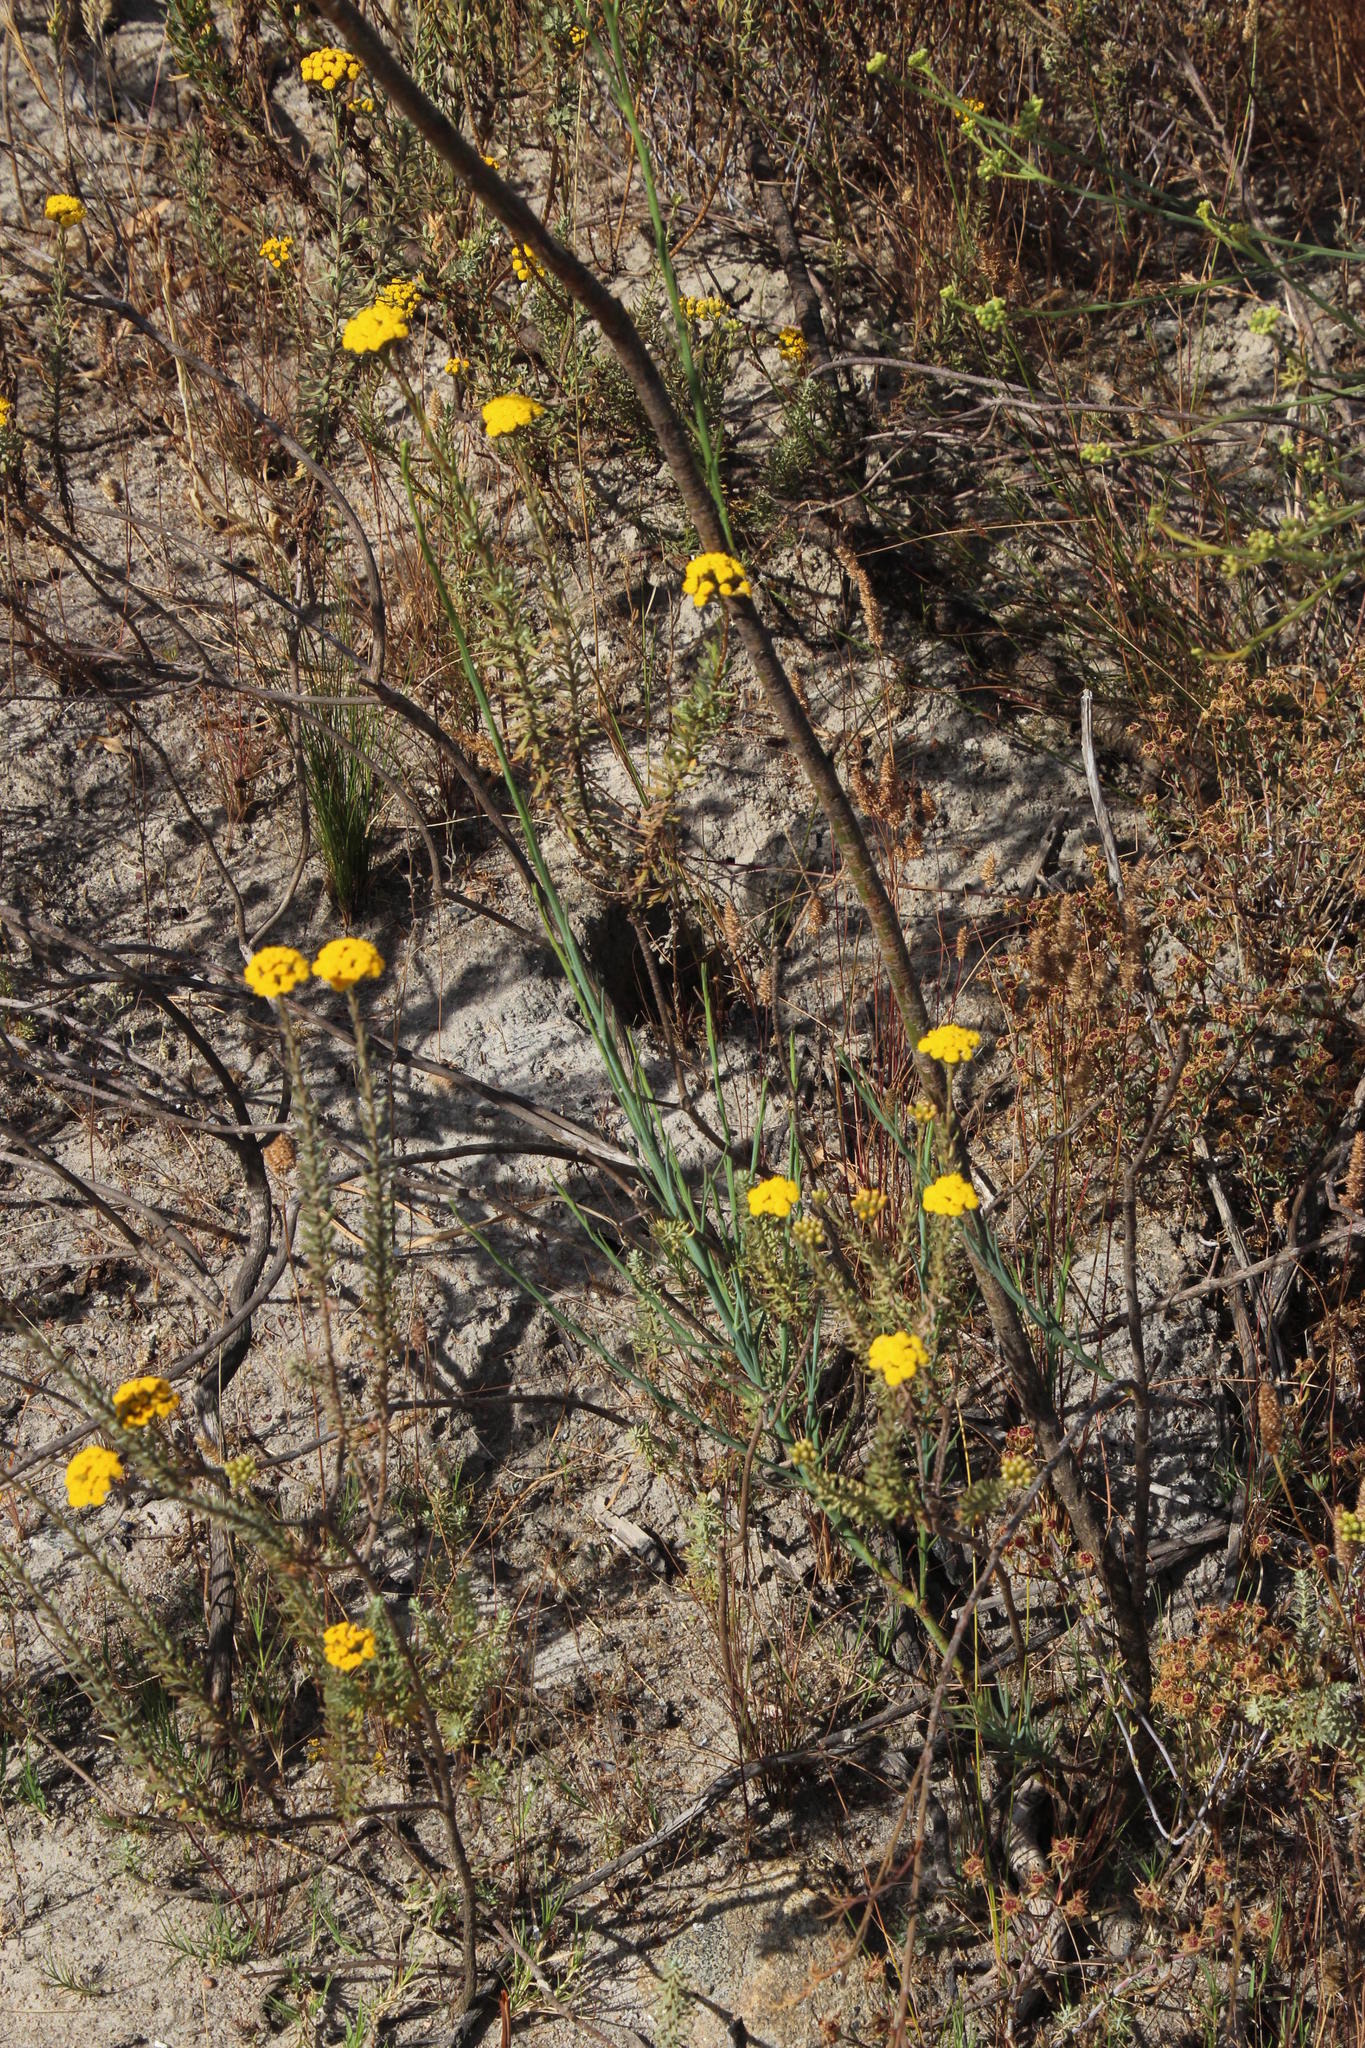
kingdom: Plantae
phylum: Tracheophyta
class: Magnoliopsida
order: Santalales
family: Thesiaceae
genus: Thesium
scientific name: Thesium strictum
